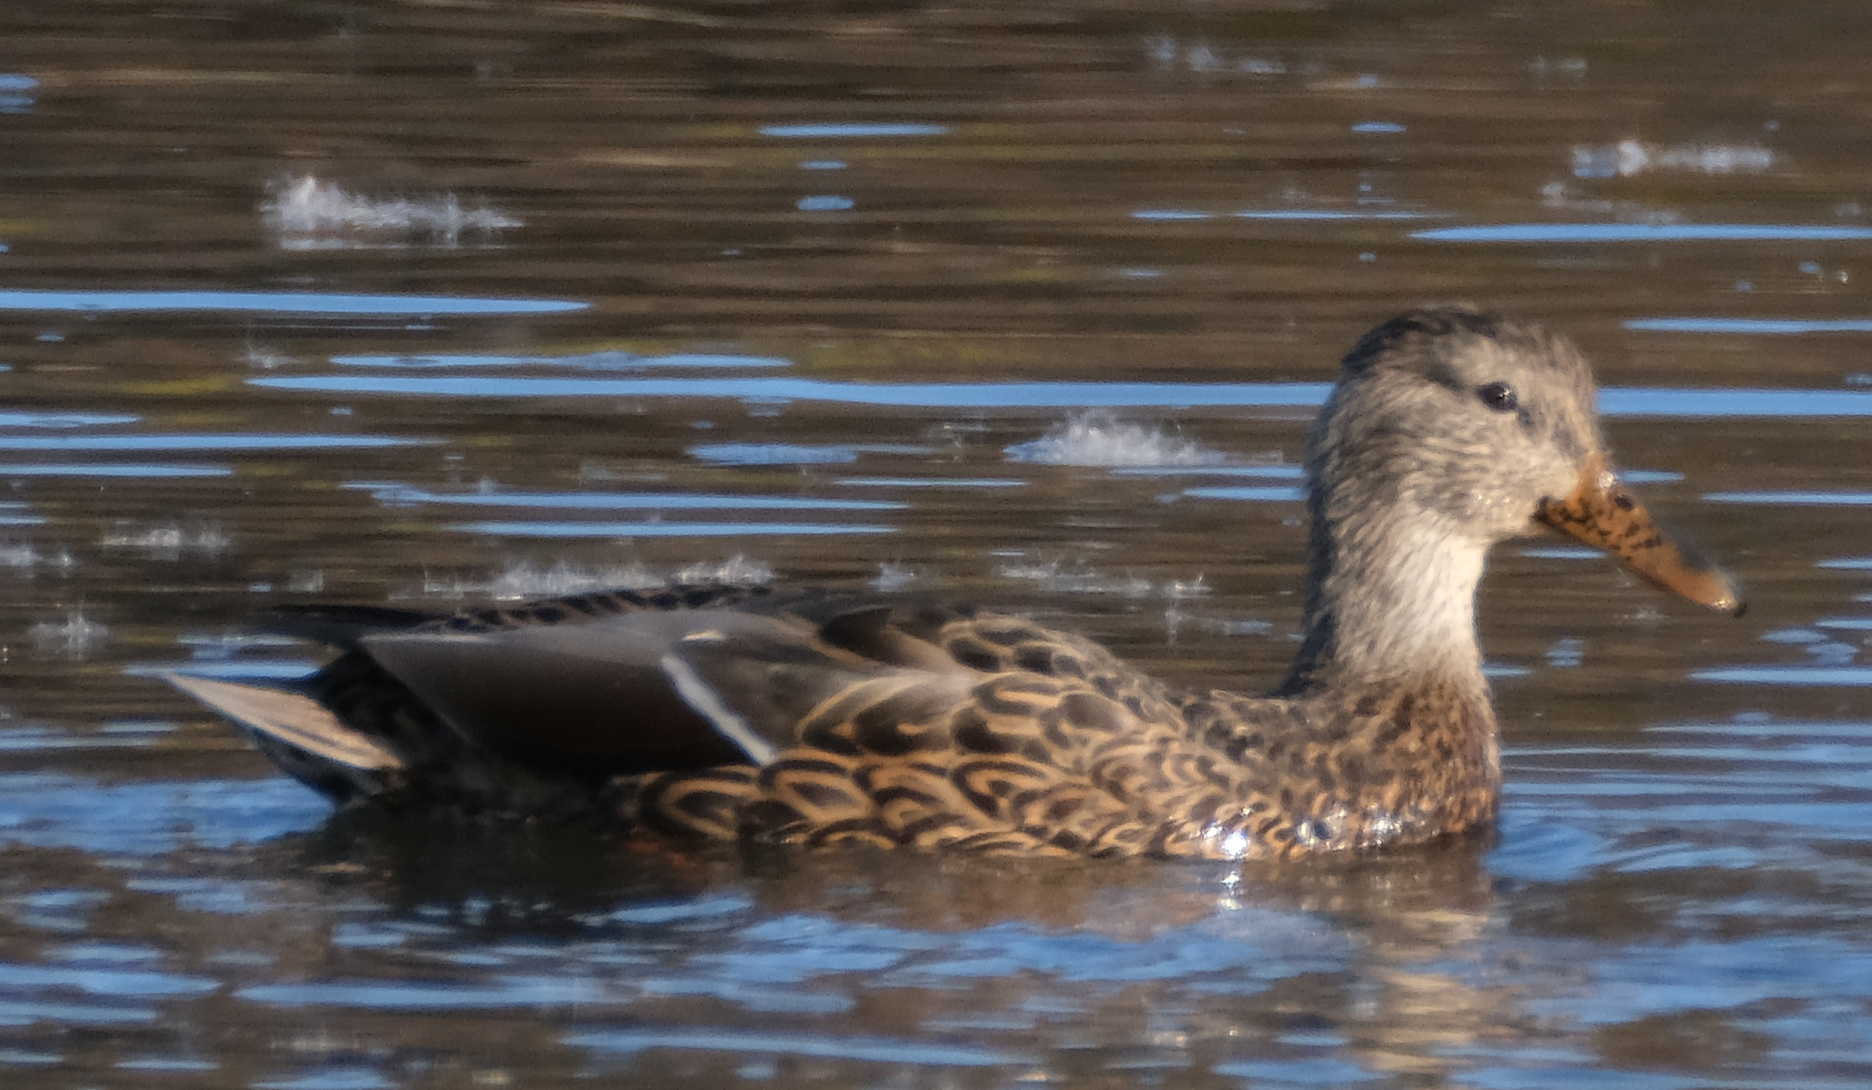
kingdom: Animalia
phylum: Chordata
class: Aves
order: Anseriformes
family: Anatidae
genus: Anas
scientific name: Anas platyrhynchos
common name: Mallard
